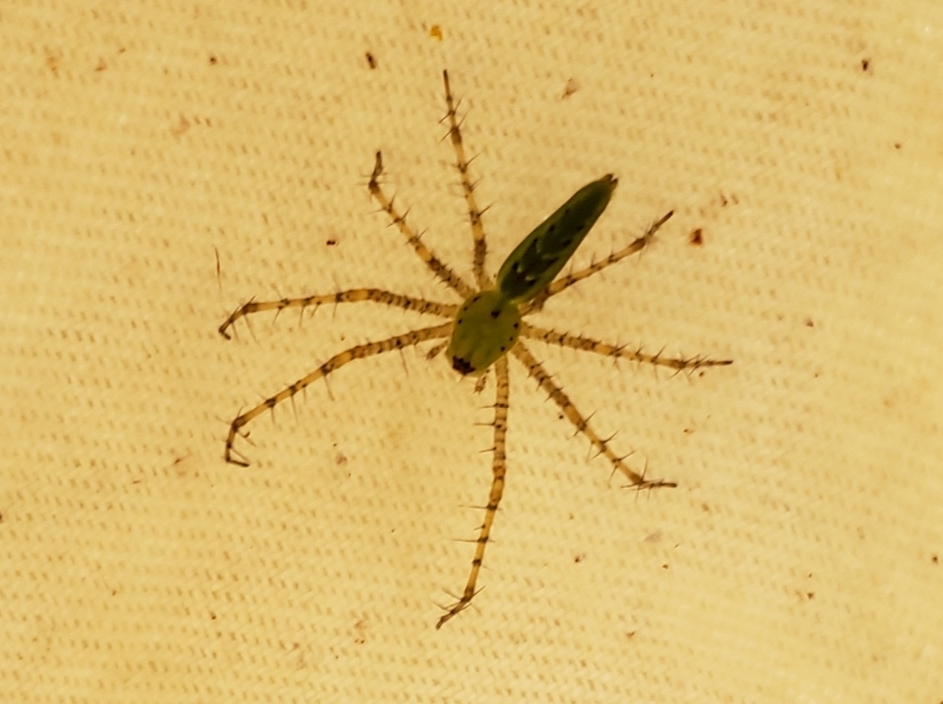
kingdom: Animalia
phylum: Arthropoda
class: Arachnida
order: Araneae
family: Oxyopidae
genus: Peucetia
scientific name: Peucetia viridans
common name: Lynx spiders
